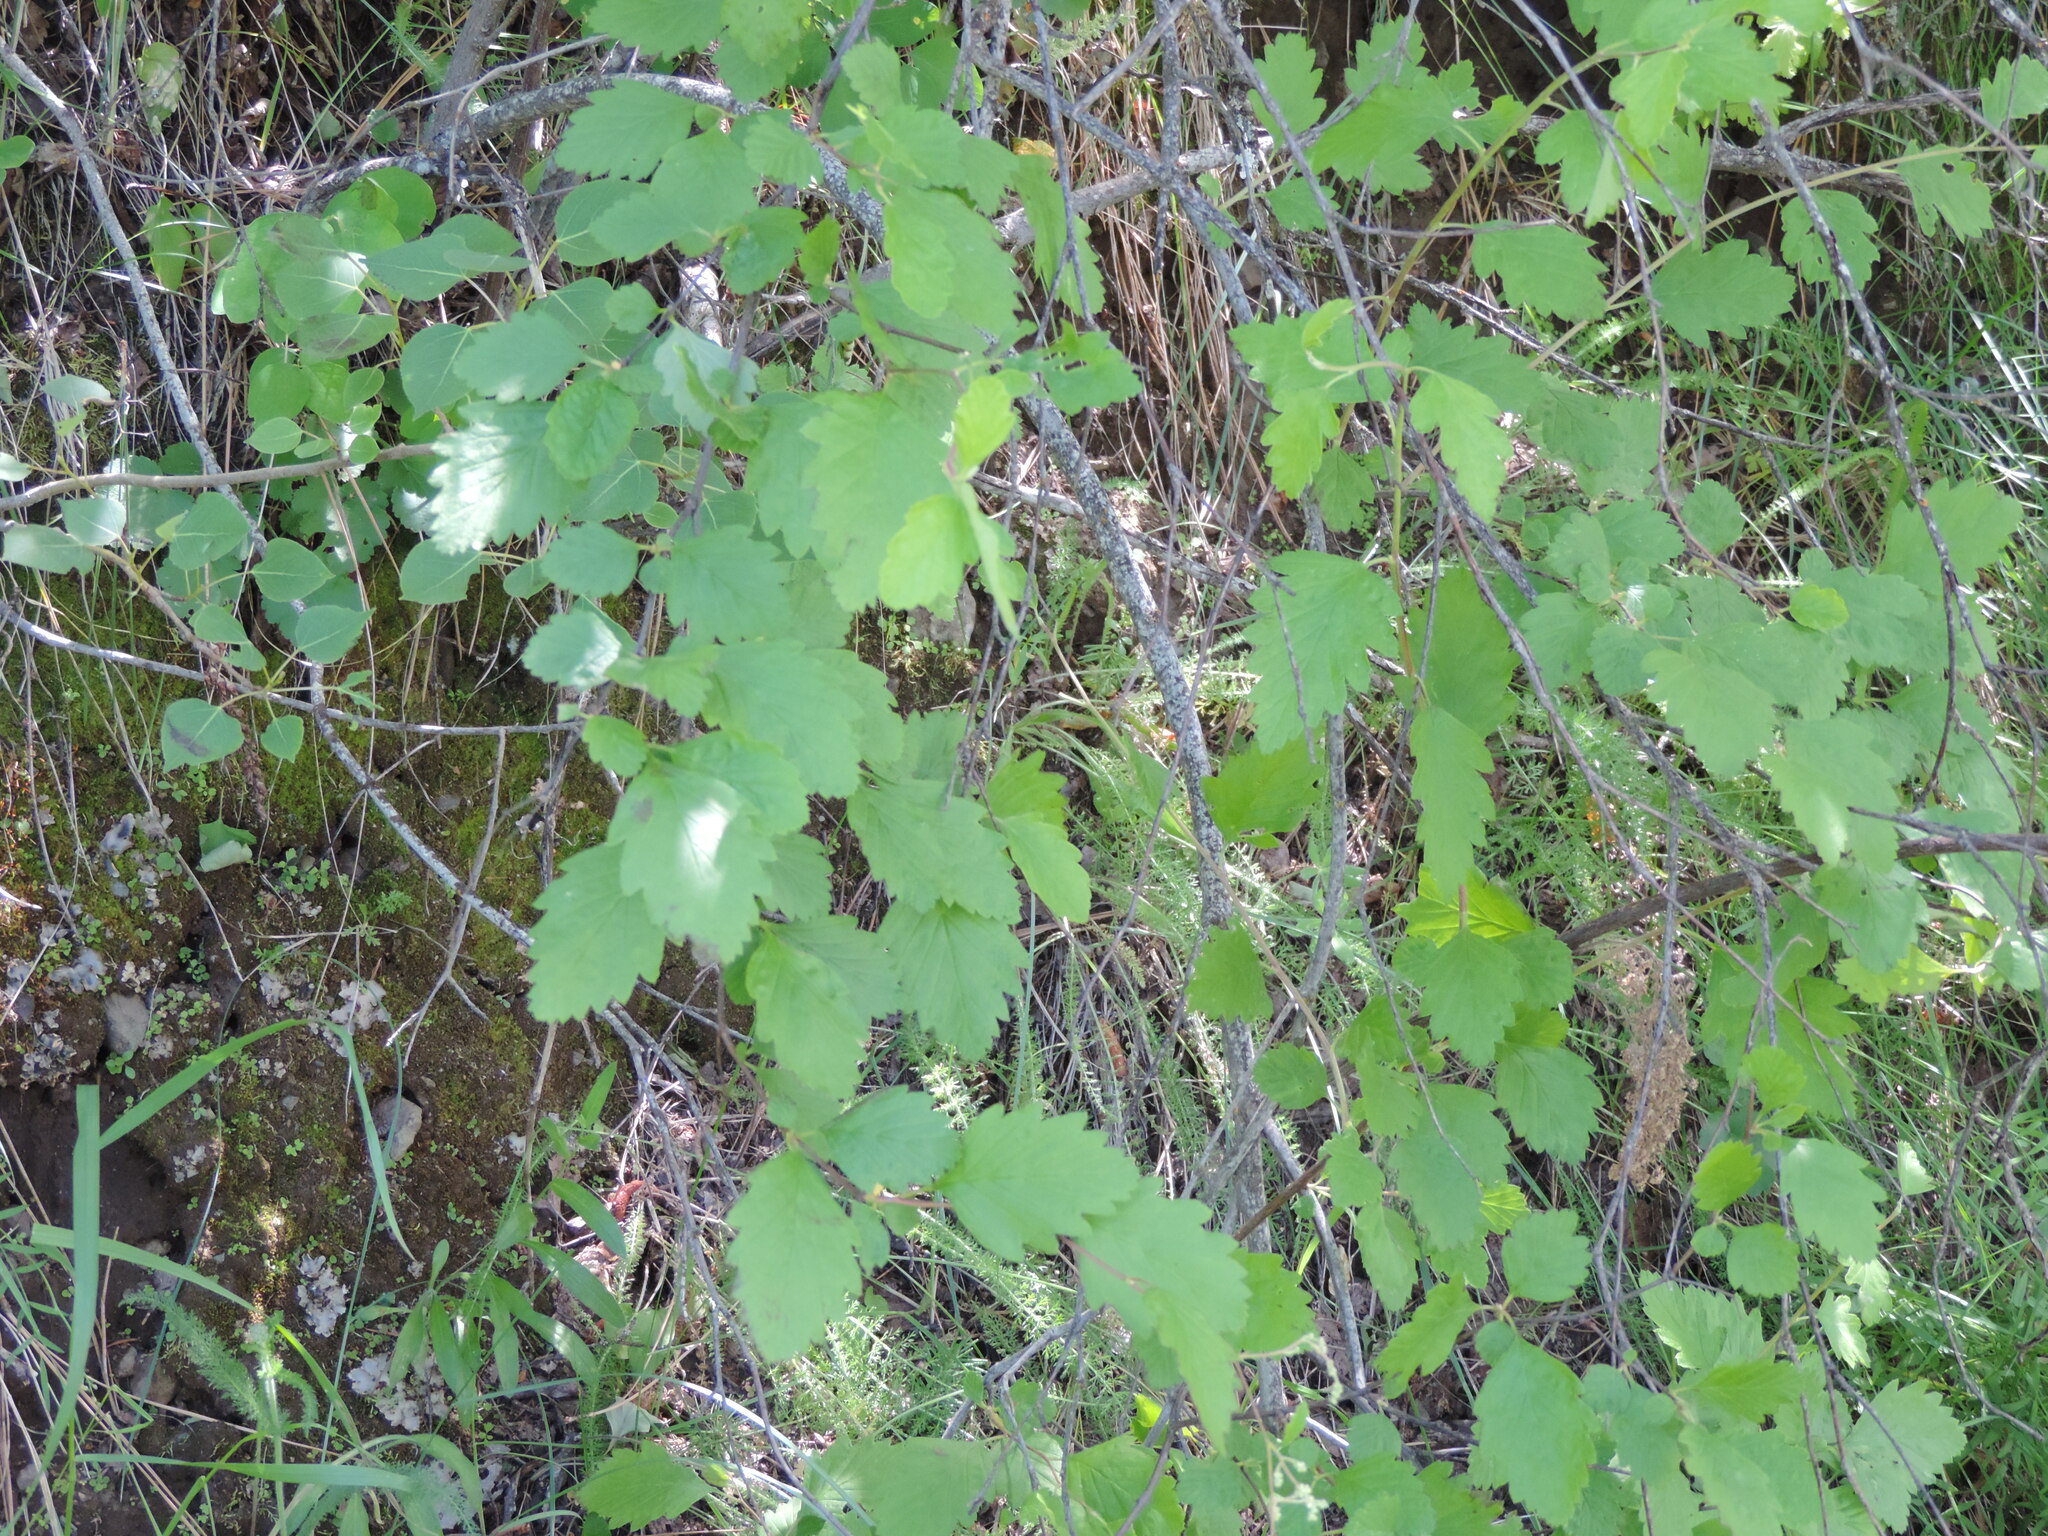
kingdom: Plantae
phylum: Tracheophyta
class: Magnoliopsida
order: Rosales
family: Rosaceae
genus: Holodiscus
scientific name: Holodiscus discolor
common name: Oceanspray
